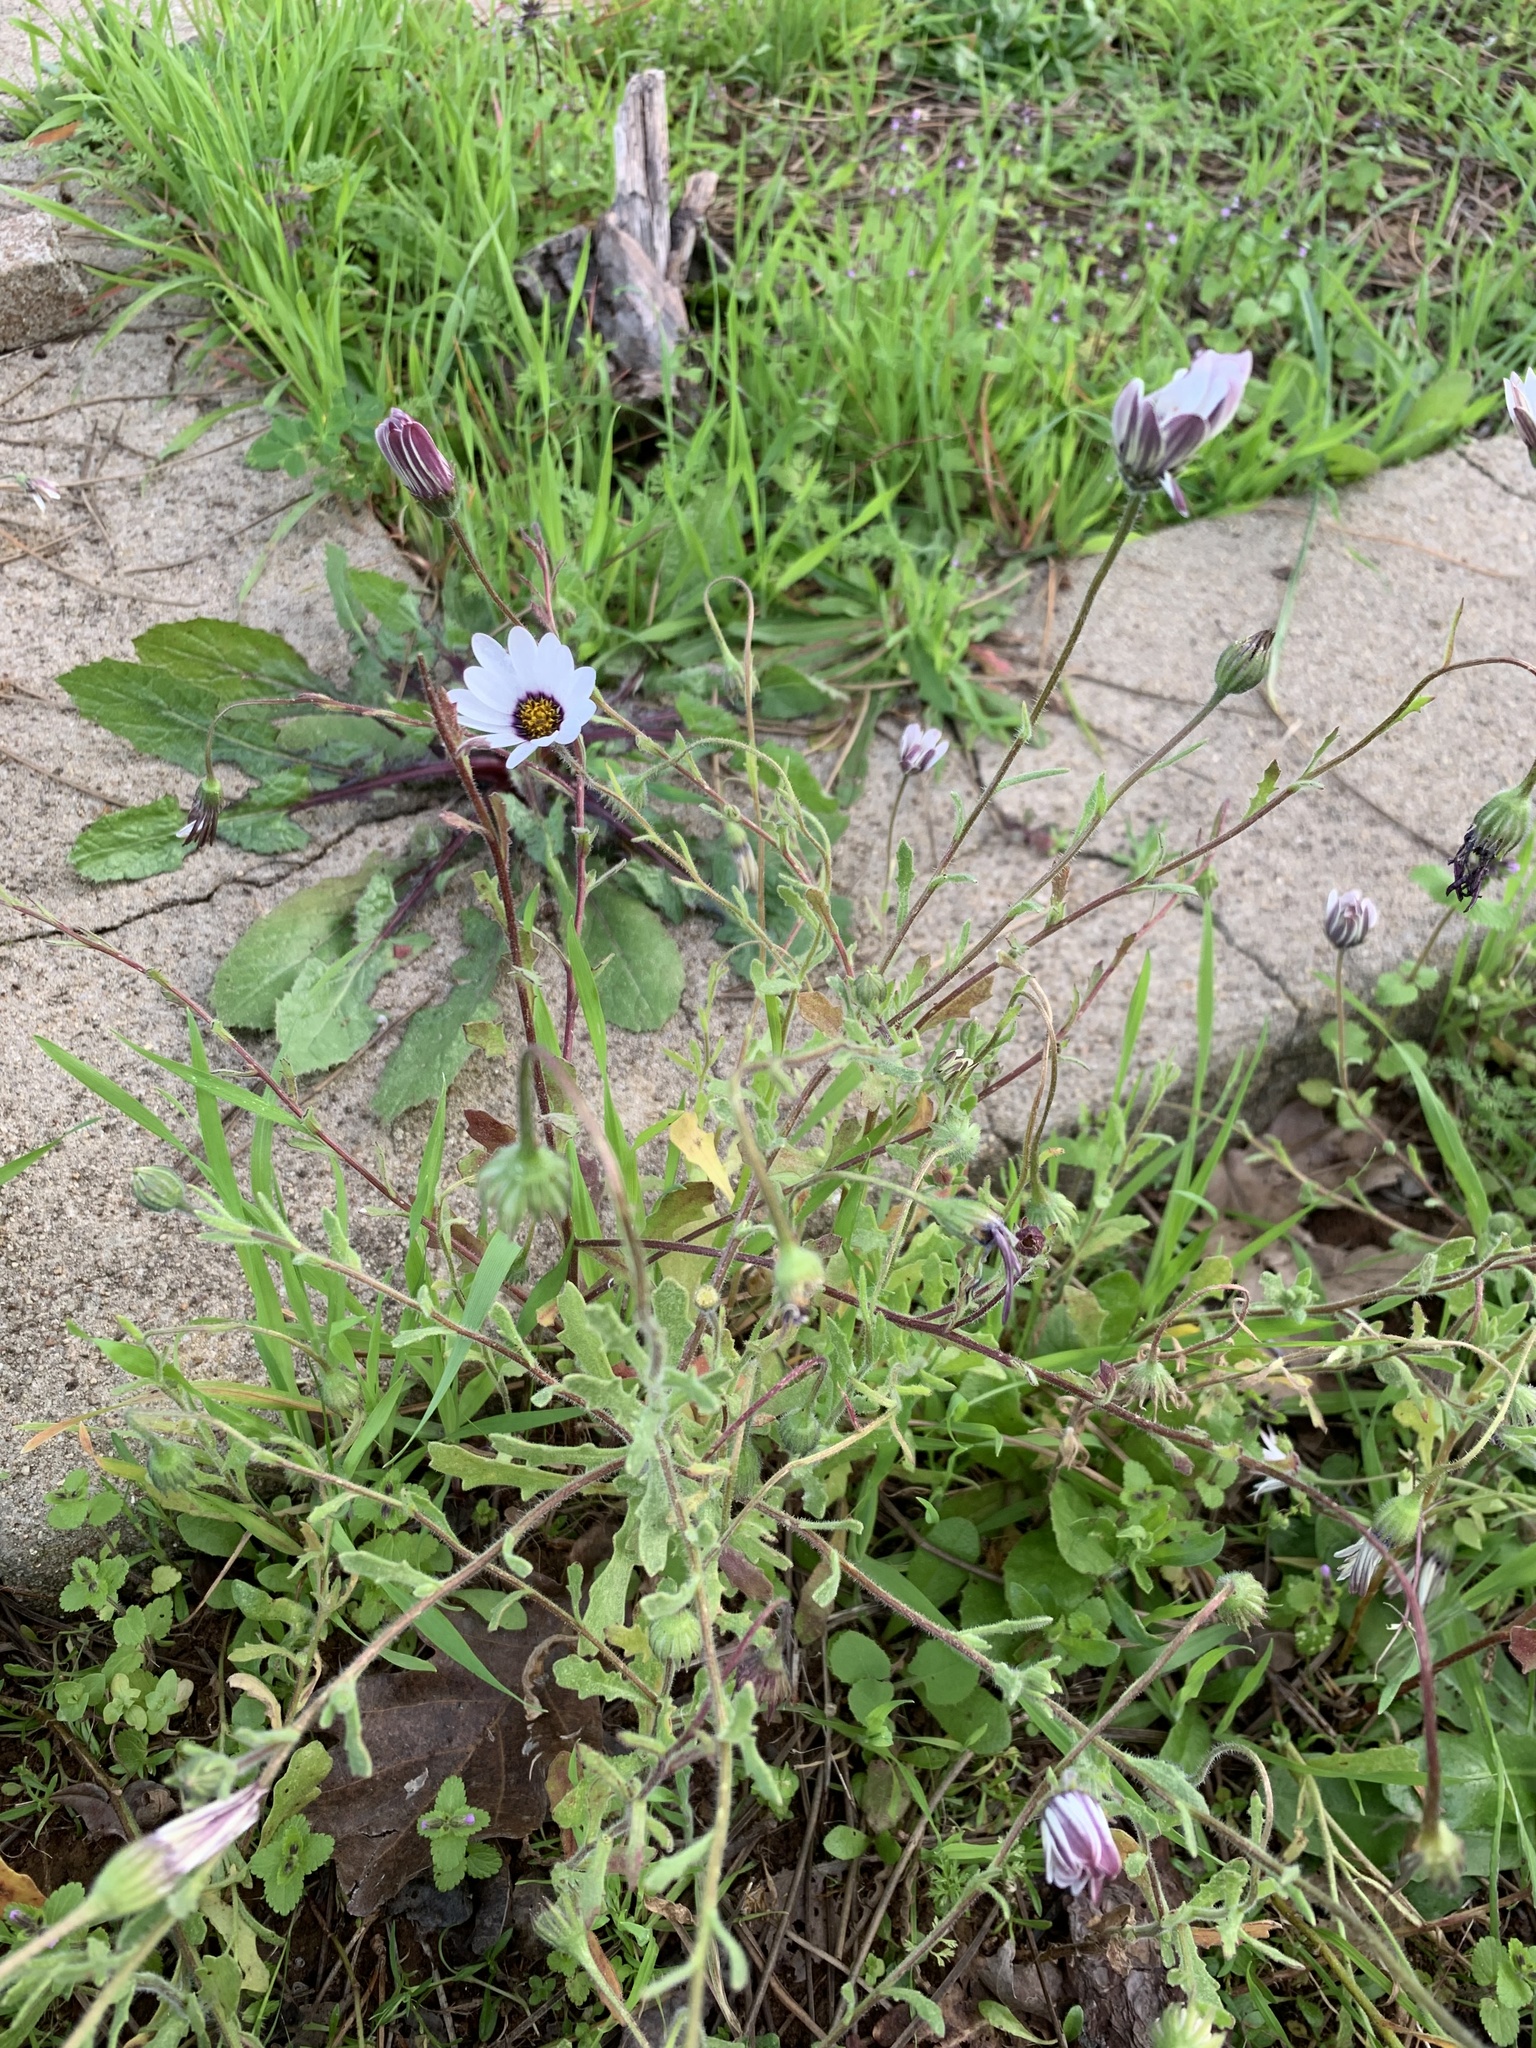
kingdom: Plantae
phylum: Tracheophyta
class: Magnoliopsida
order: Asterales
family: Asteraceae
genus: Dimorphotheca
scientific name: Dimorphotheca pluvialis
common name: Weather prophet
